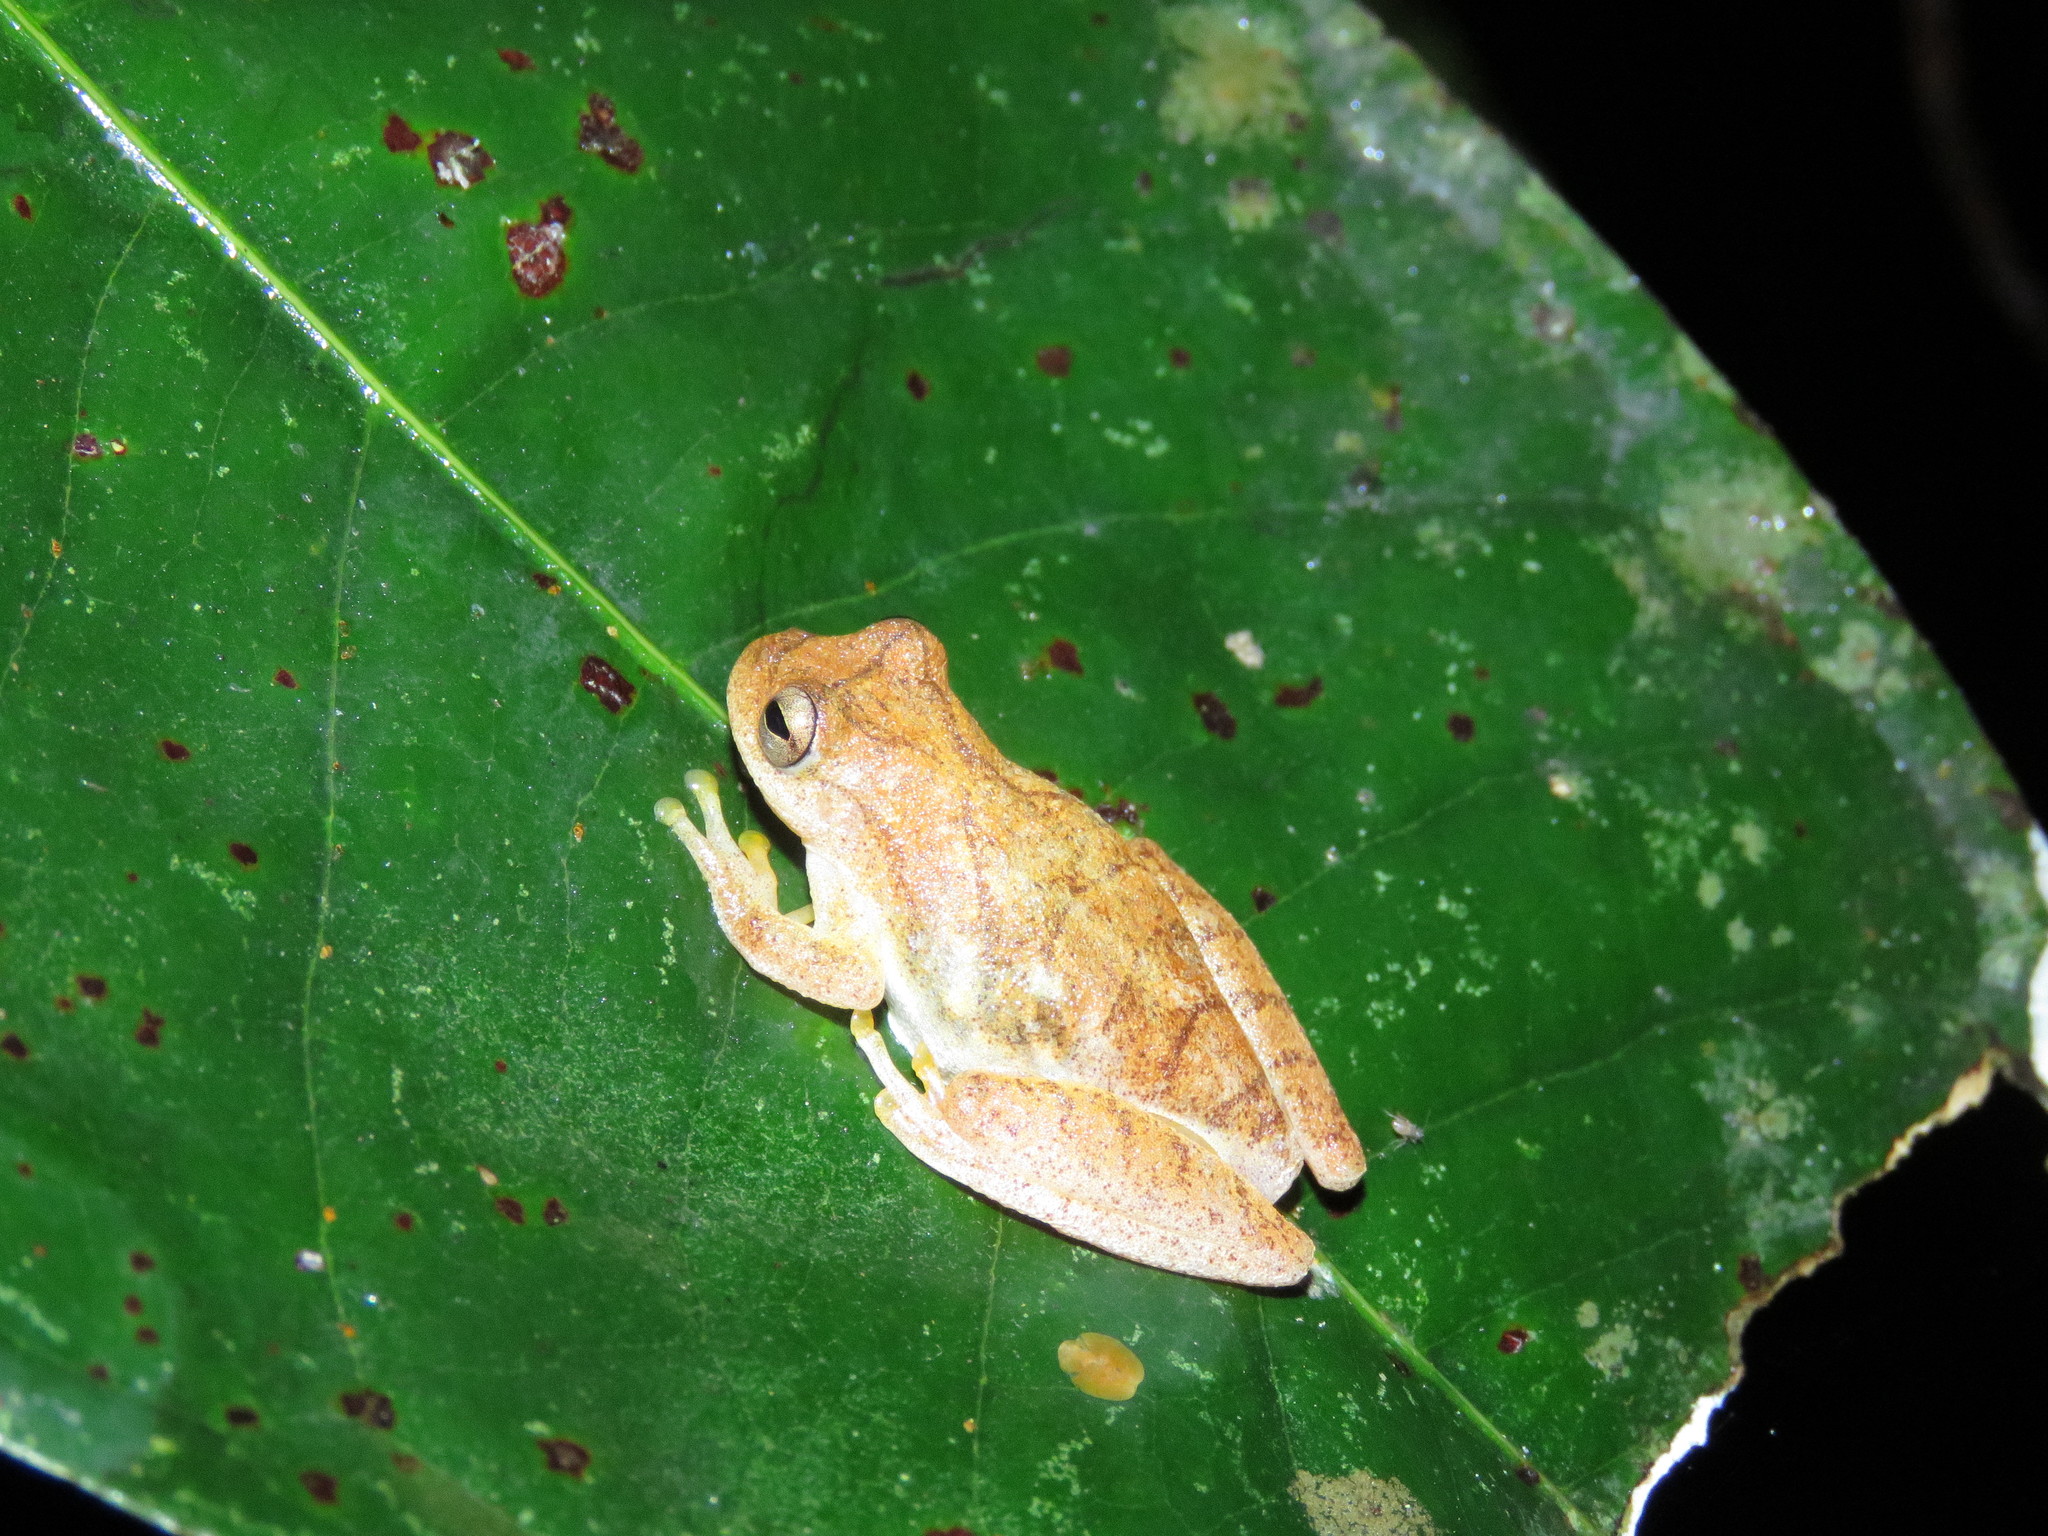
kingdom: Animalia
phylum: Chordata
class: Amphibia
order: Anura
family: Hylidae
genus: Dendropsophus
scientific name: Dendropsophus minutus
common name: Lesser treefrog
